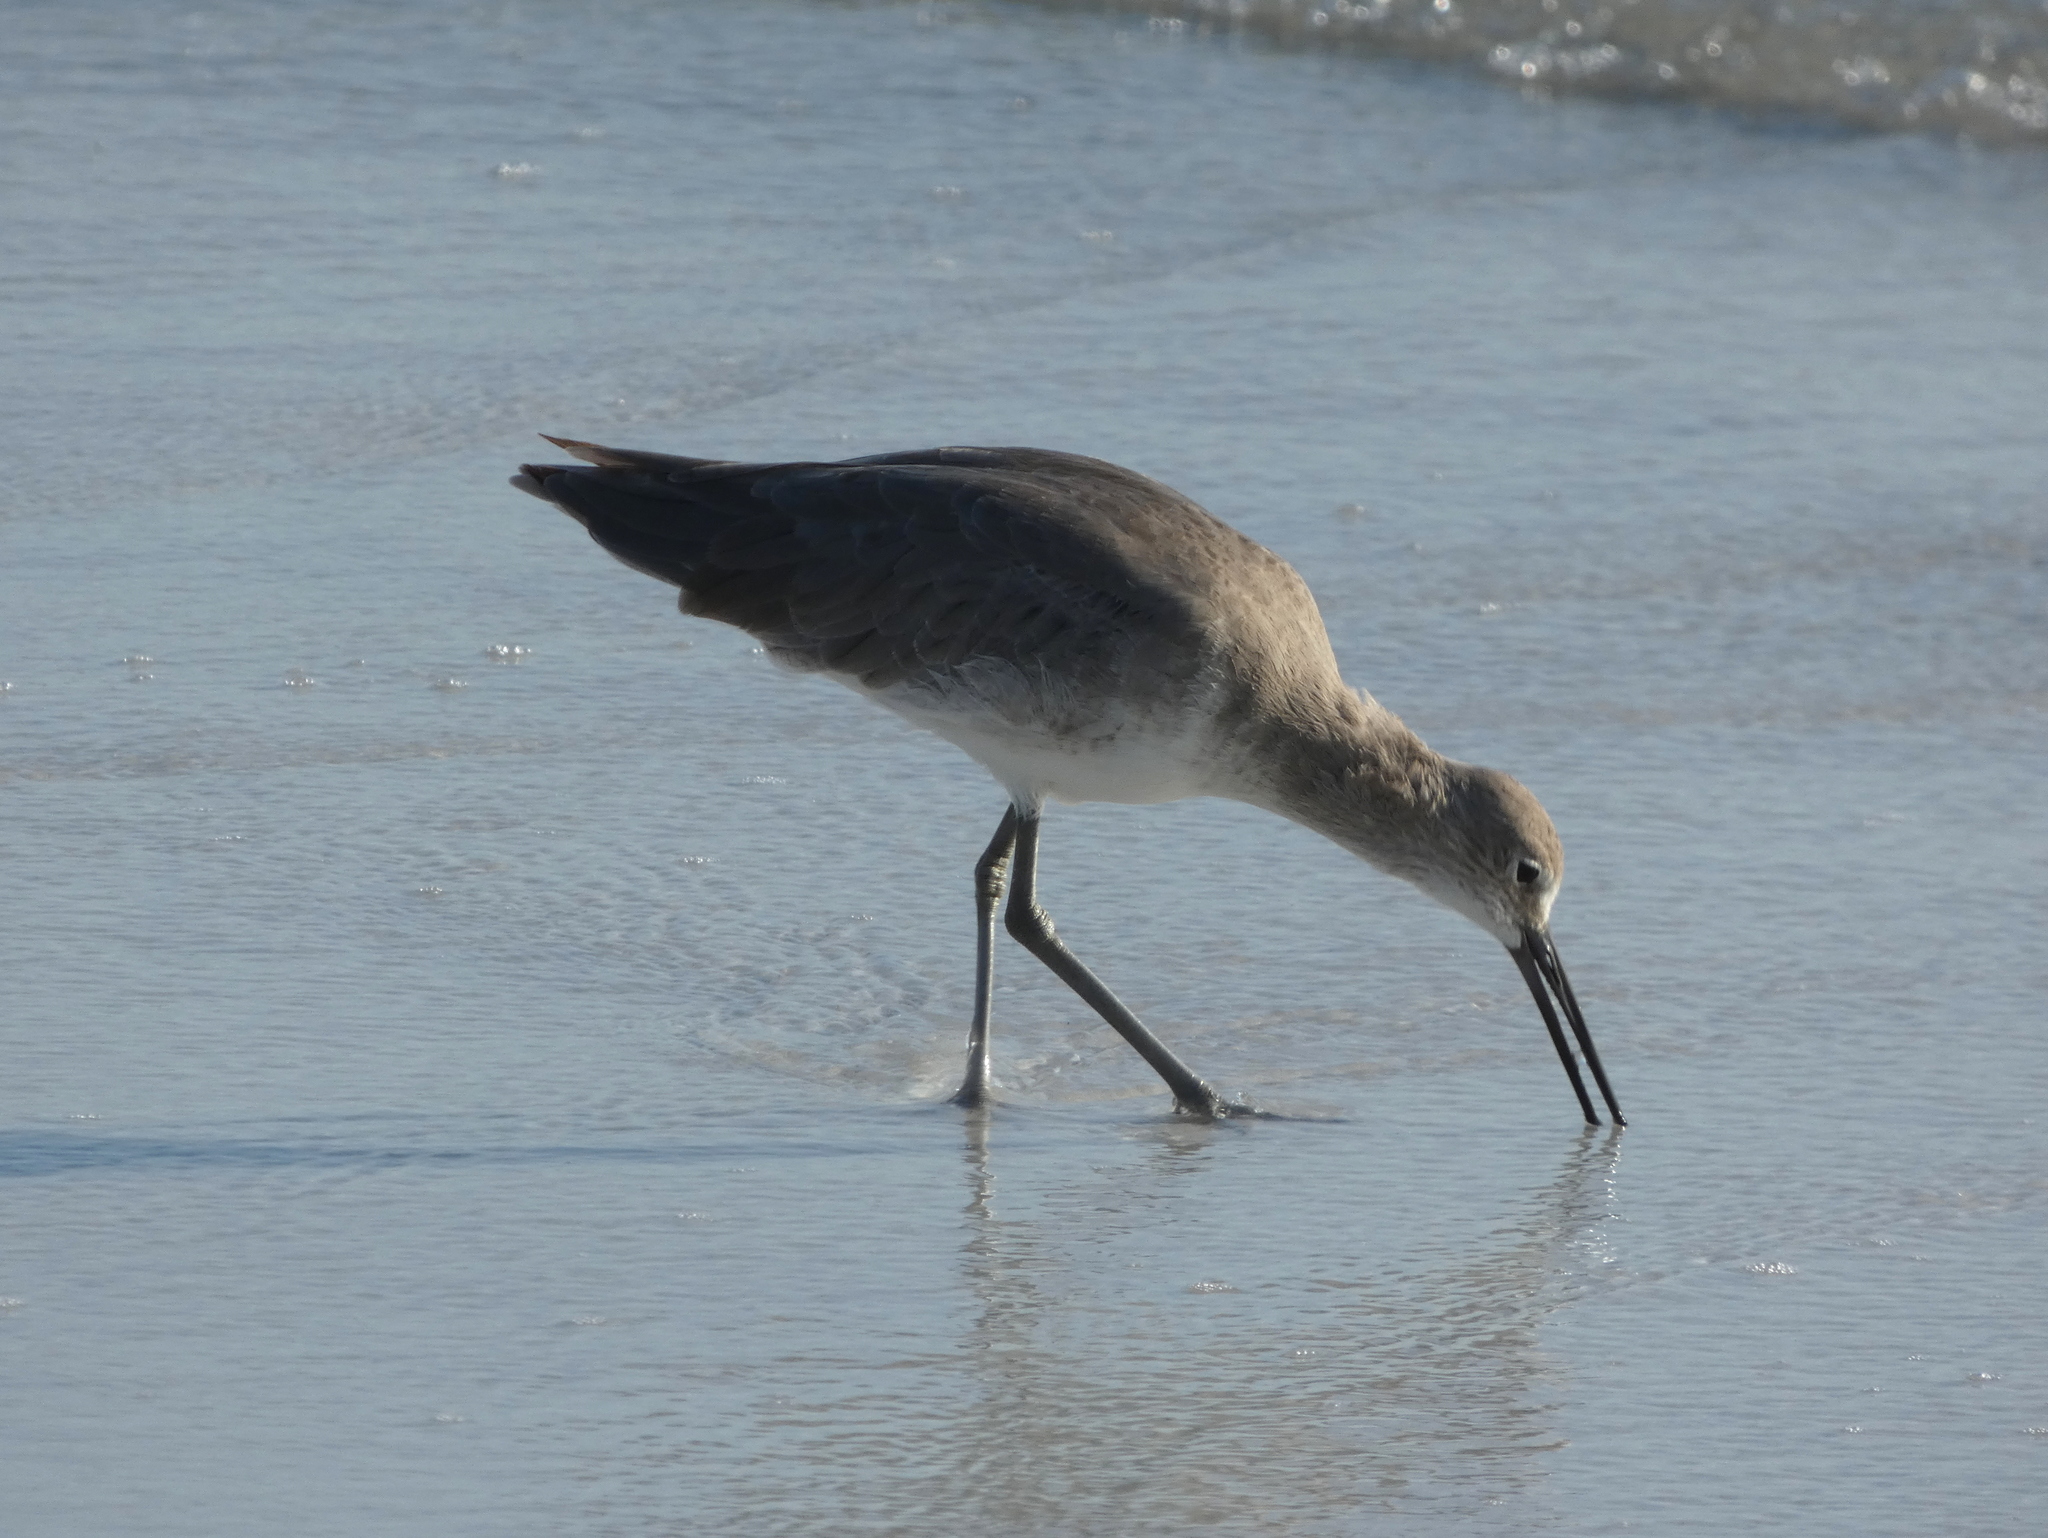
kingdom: Animalia
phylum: Chordata
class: Aves
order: Charadriiformes
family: Scolopacidae
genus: Tringa
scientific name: Tringa semipalmata
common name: Willet
